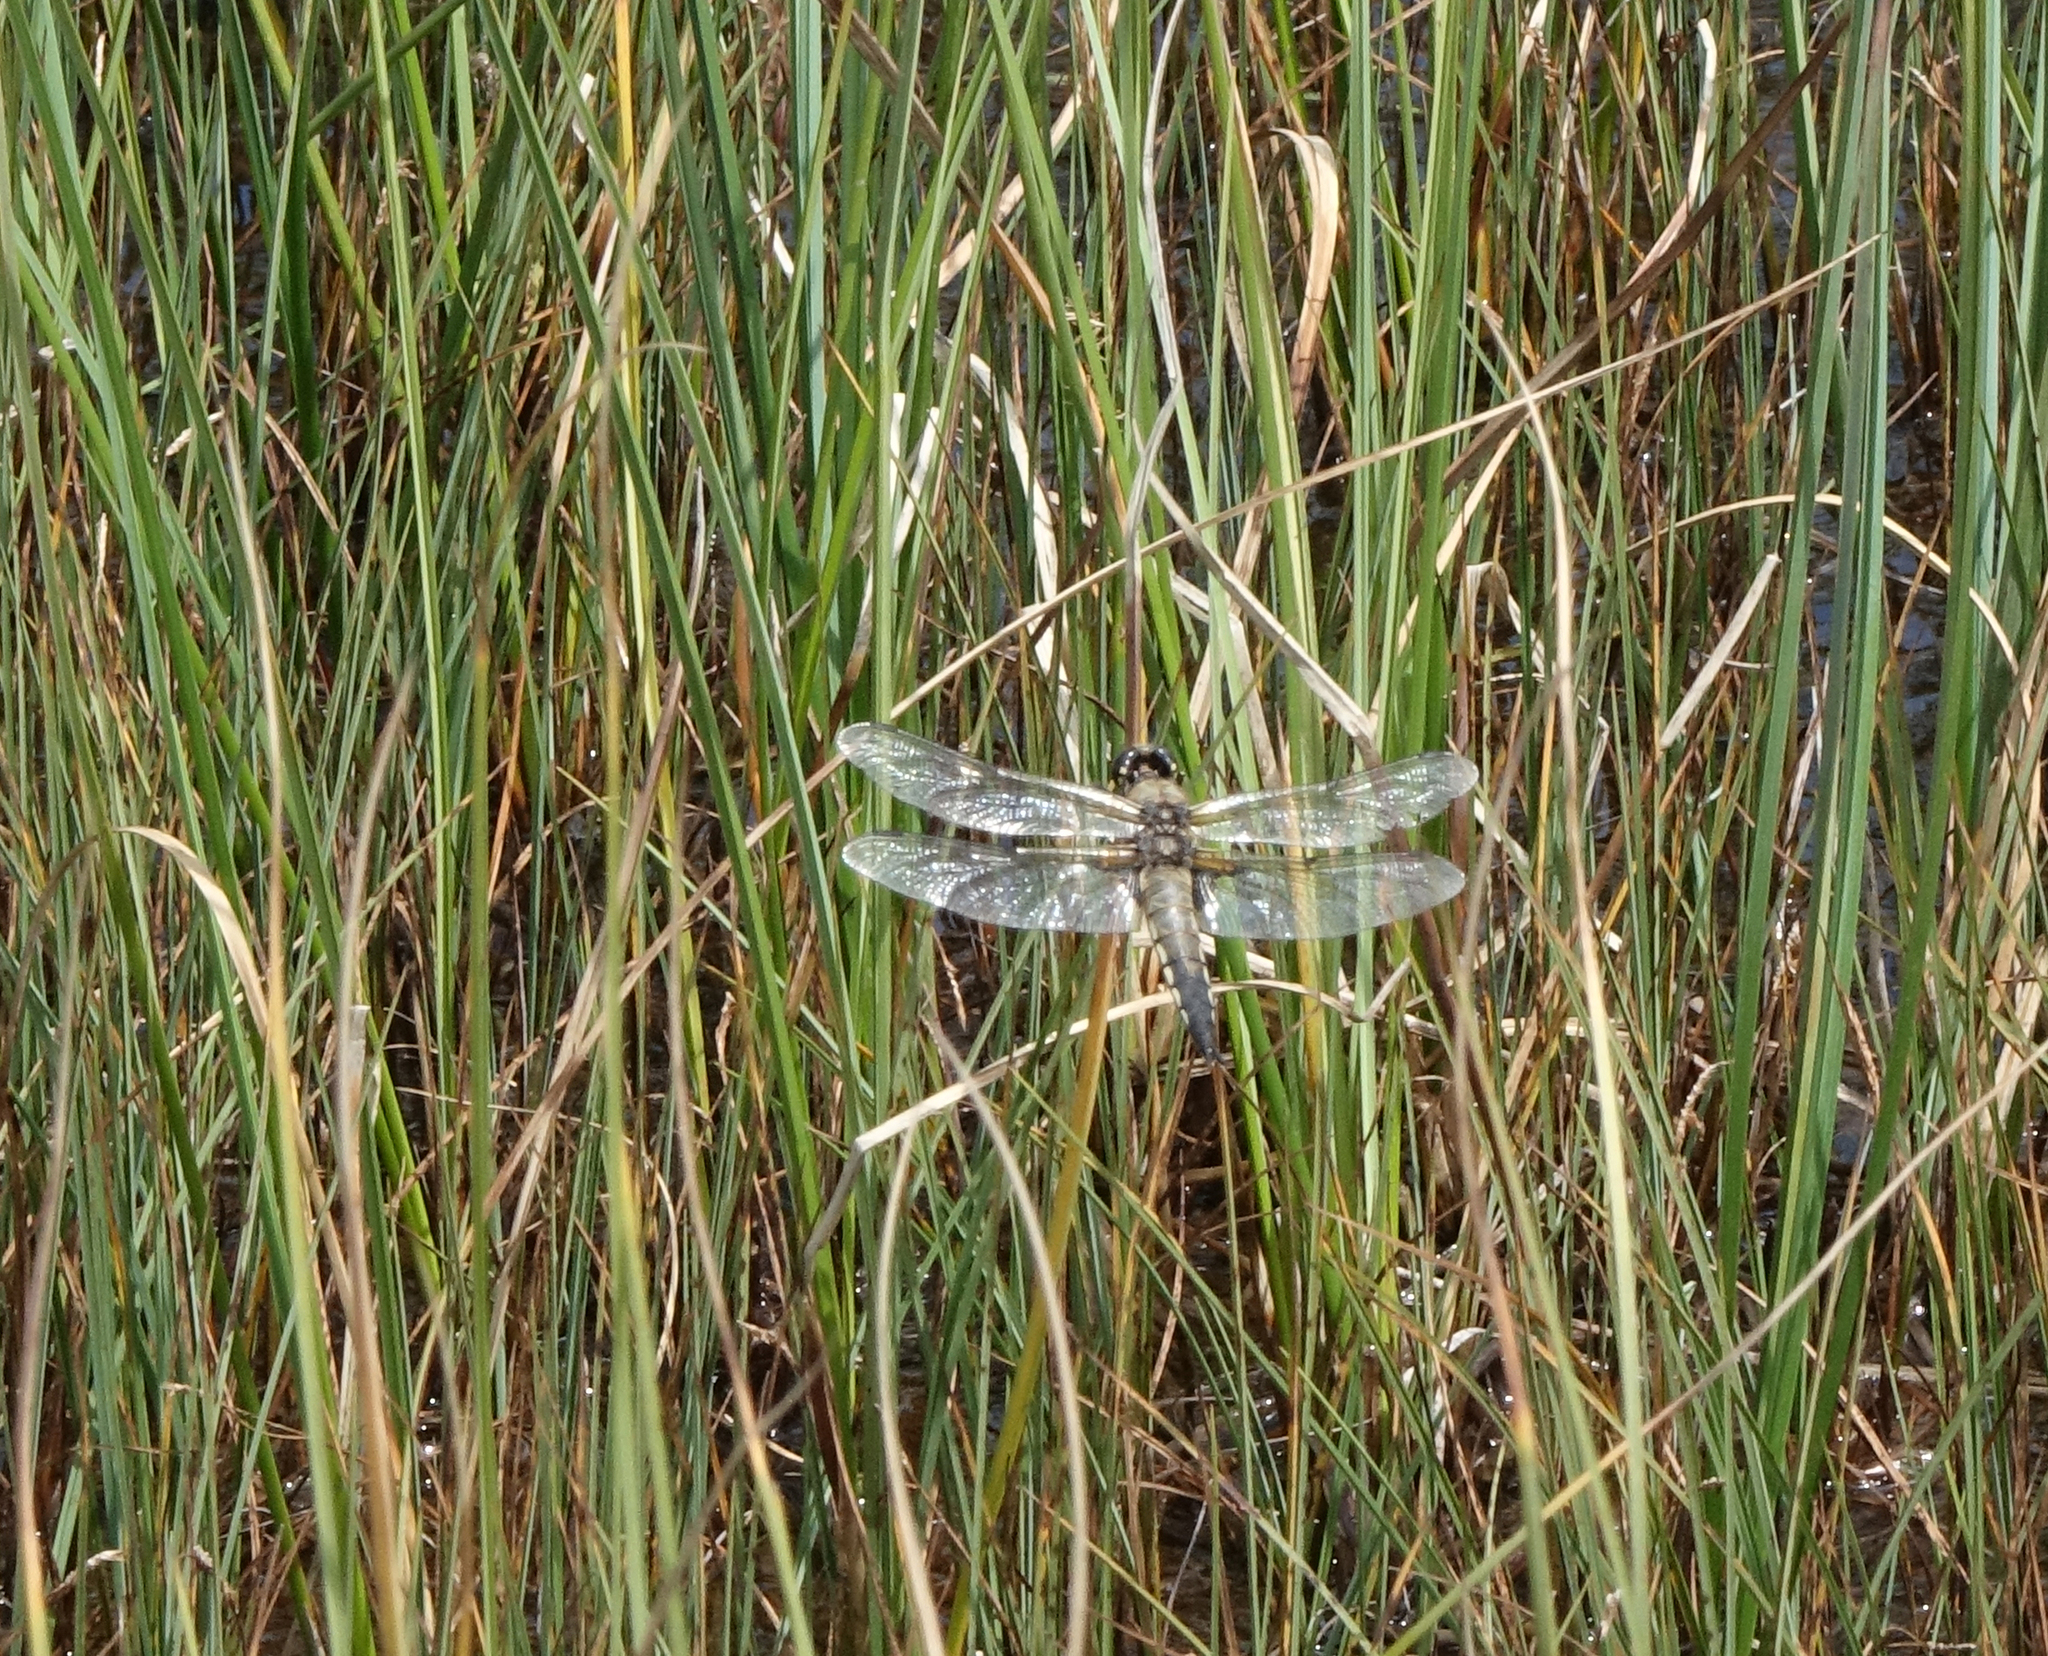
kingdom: Animalia
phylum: Arthropoda
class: Insecta
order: Odonata
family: Libellulidae
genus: Libellula
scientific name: Libellula quadrimaculata
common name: Four-spotted chaser
